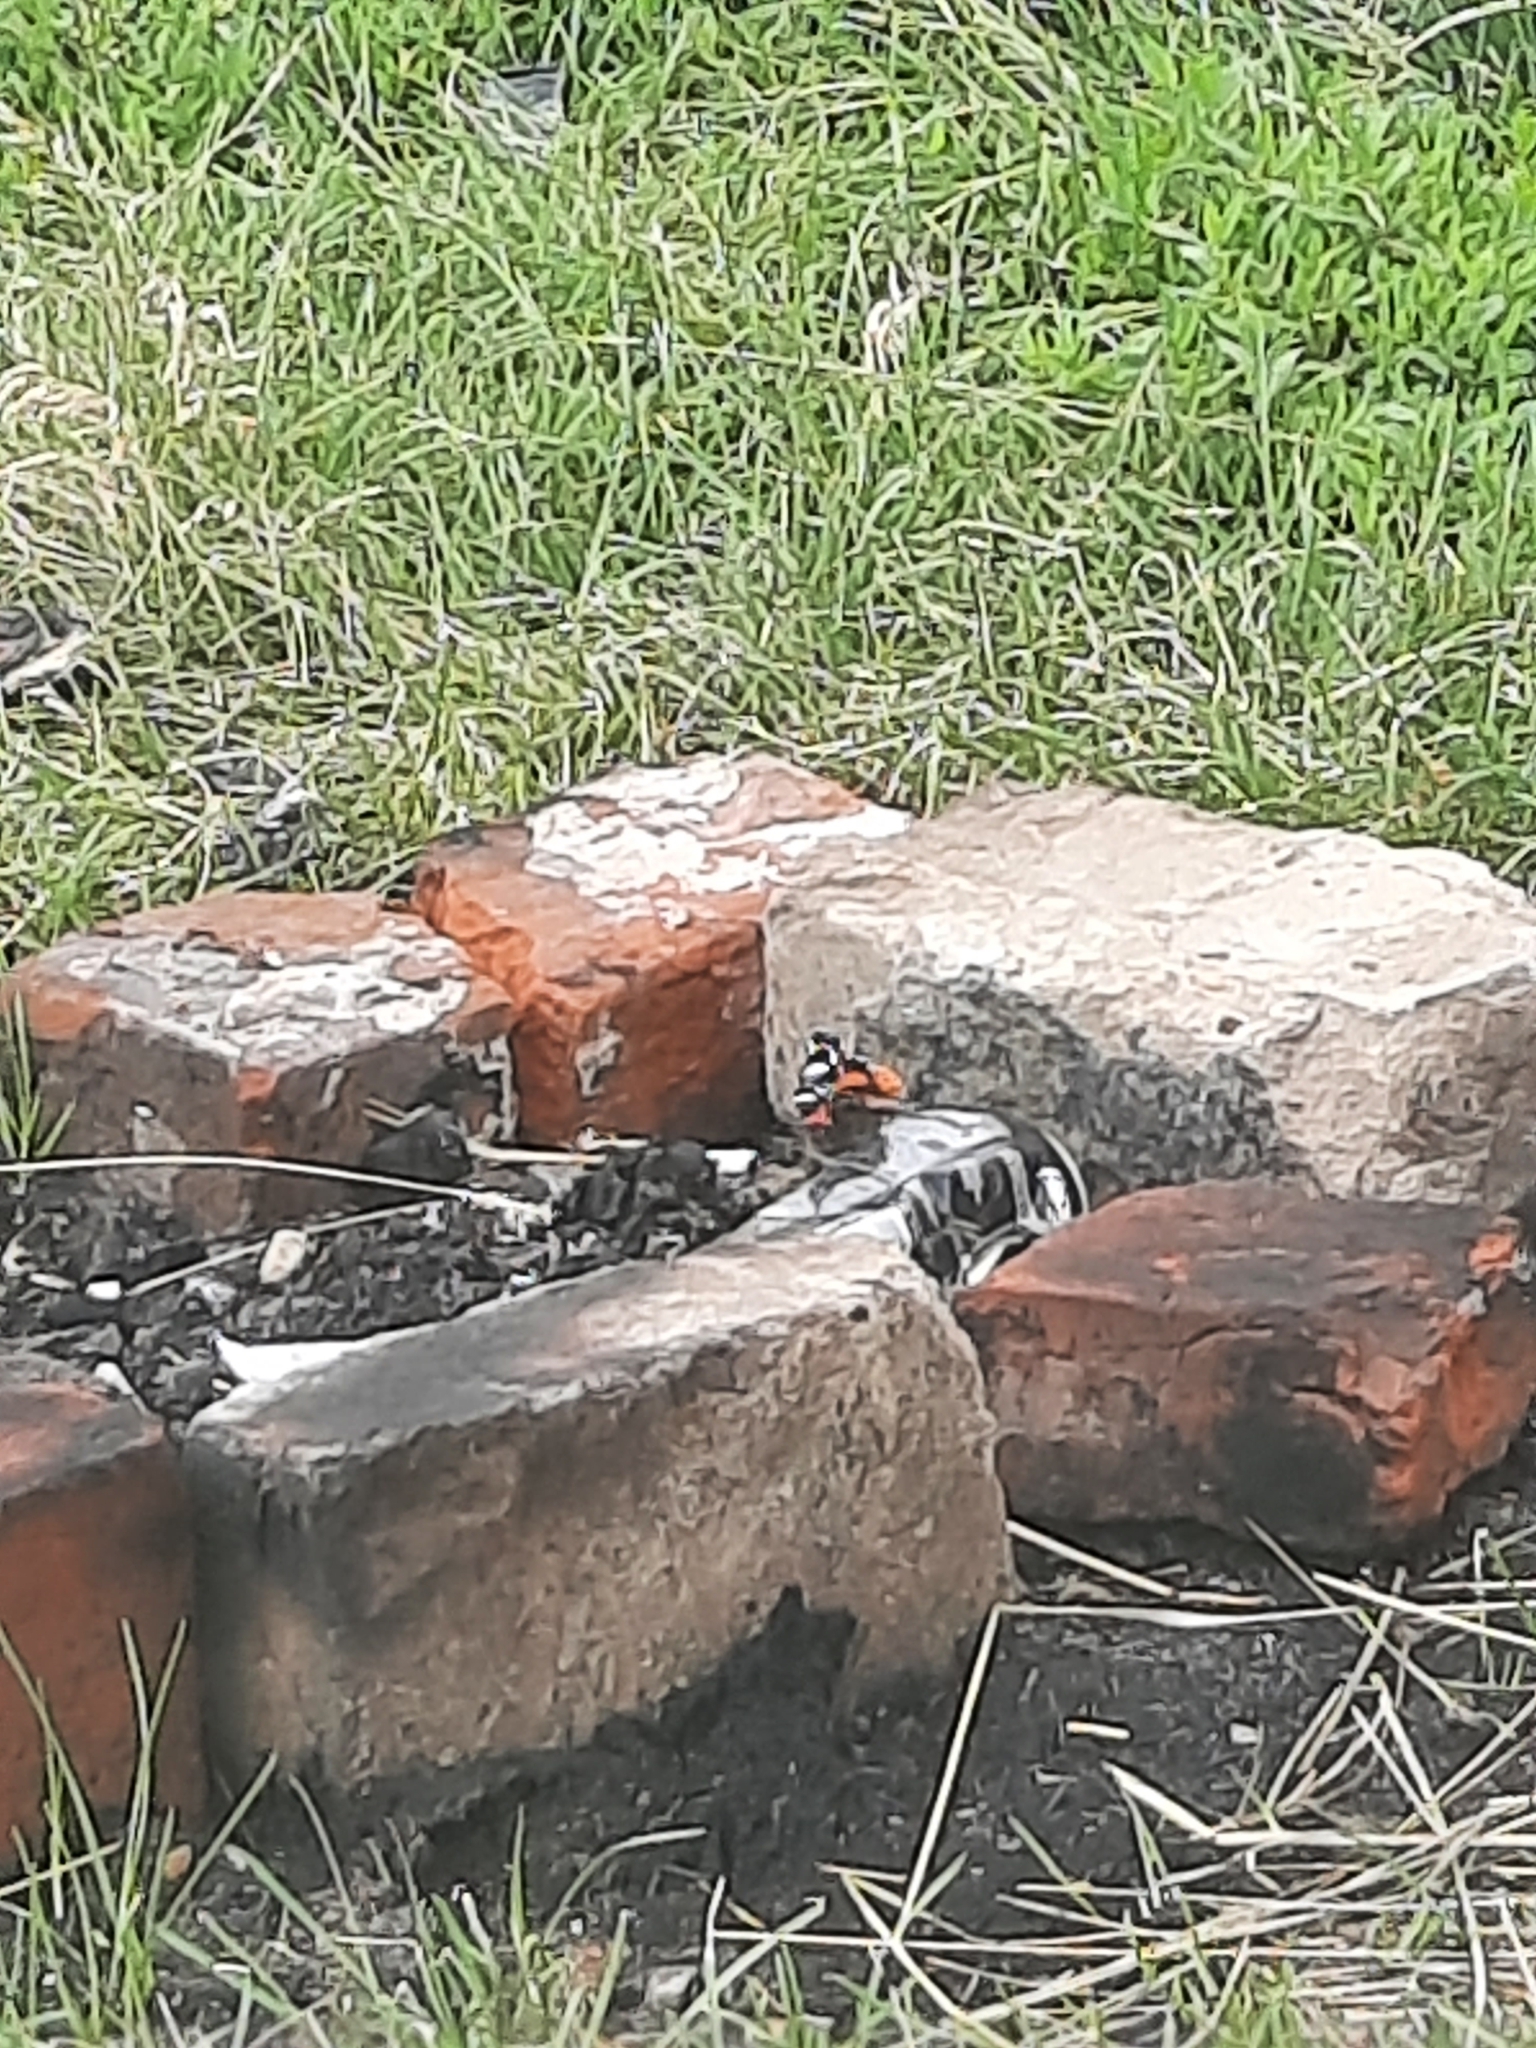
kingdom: Animalia
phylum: Arthropoda
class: Insecta
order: Lepidoptera
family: Nymphalidae
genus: Vanessa
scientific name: Vanessa atalanta
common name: Red admiral
